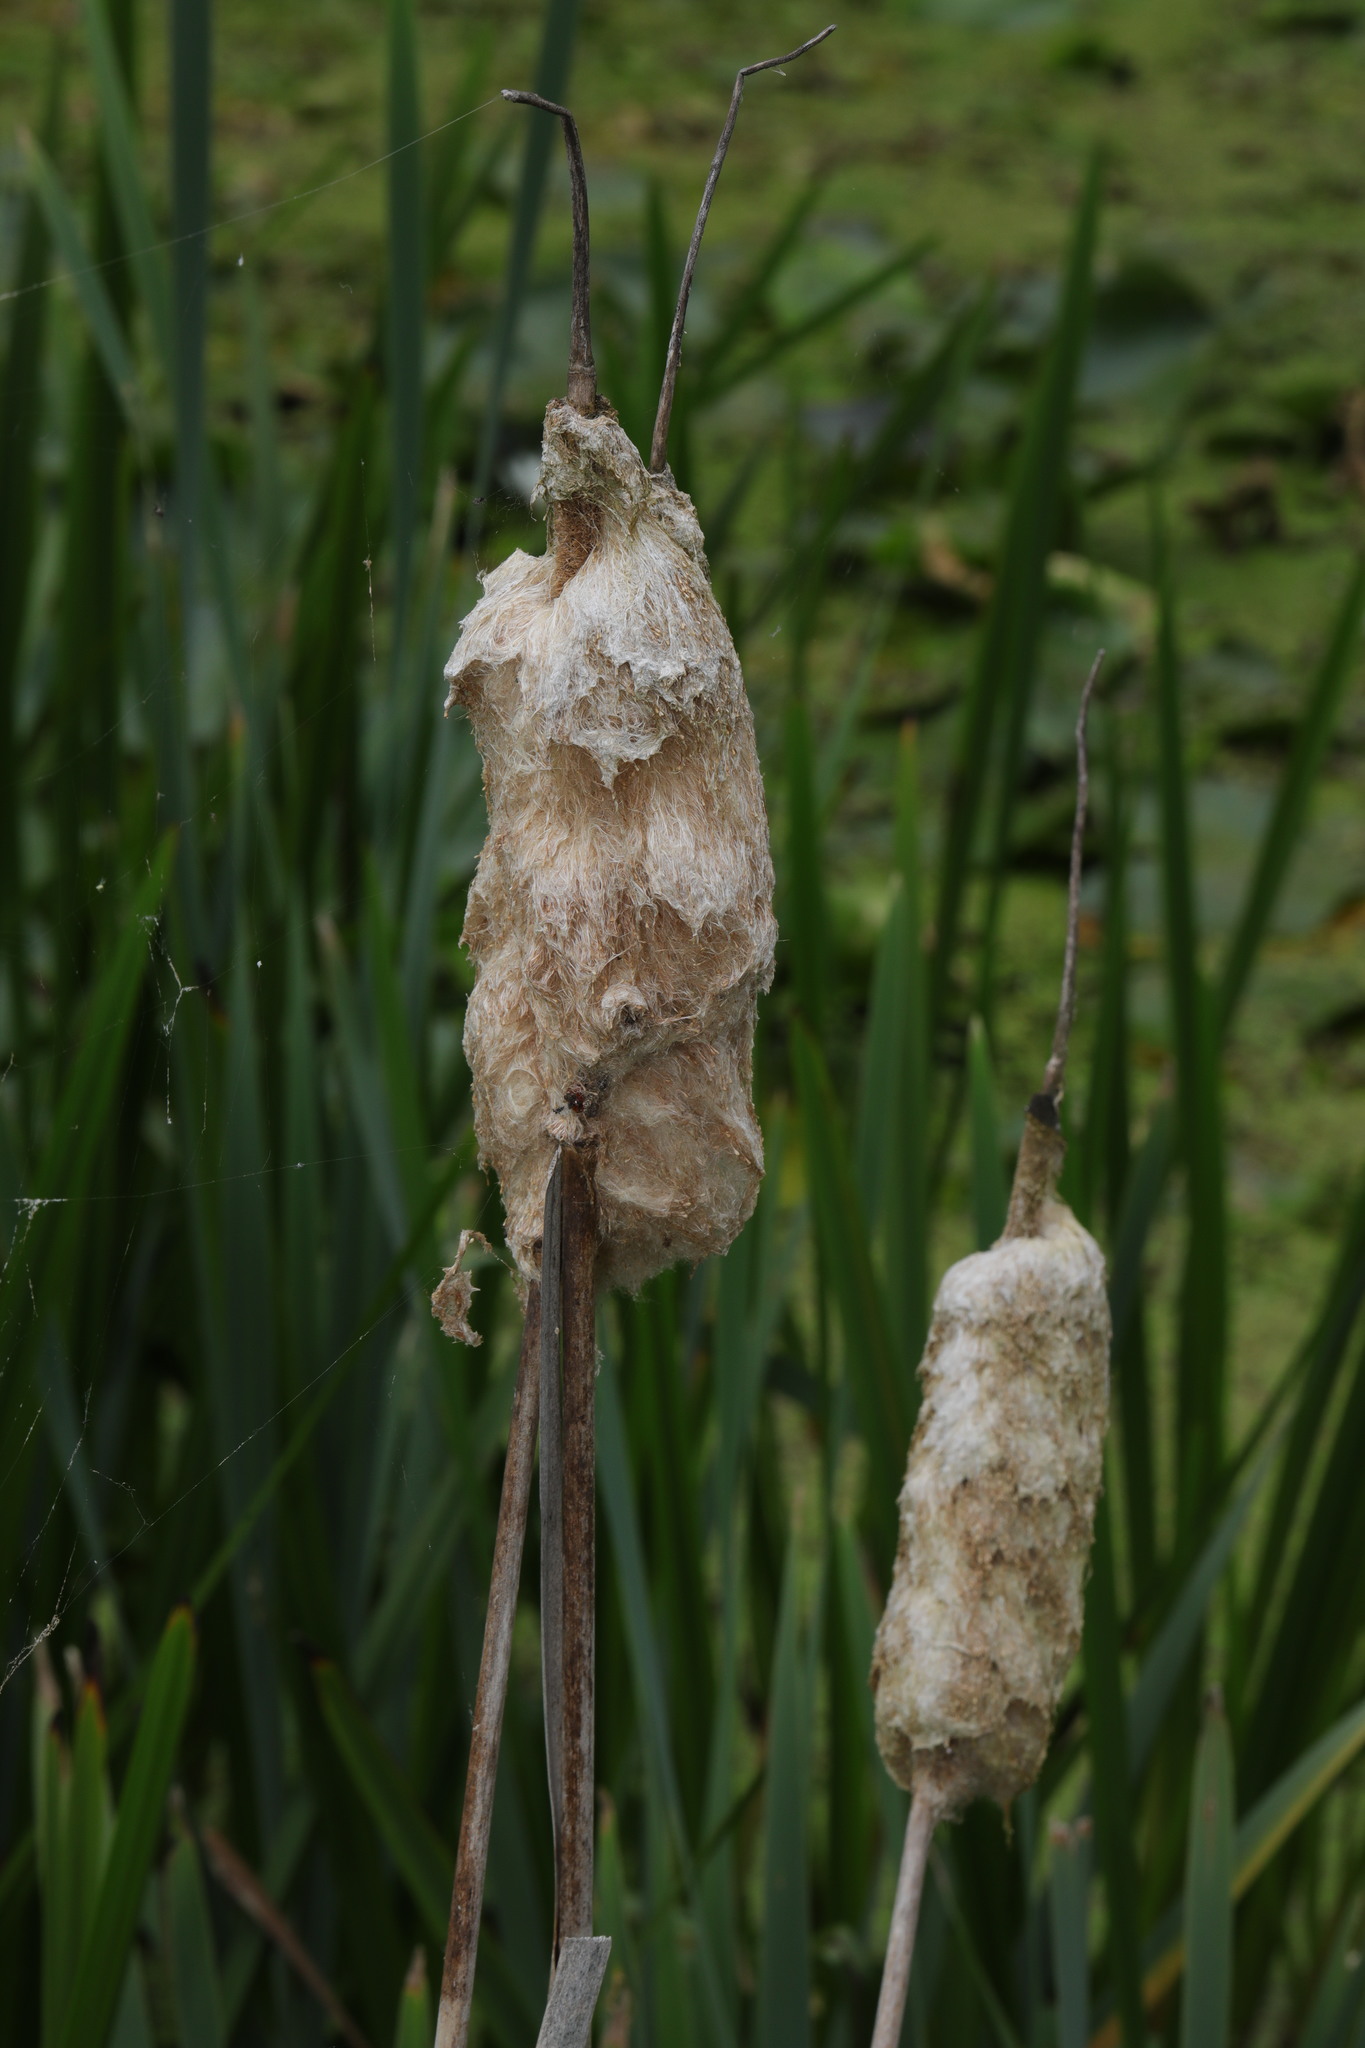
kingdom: Plantae
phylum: Tracheophyta
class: Liliopsida
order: Poales
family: Typhaceae
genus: Typha
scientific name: Typha latifolia
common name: Broadleaf cattail
